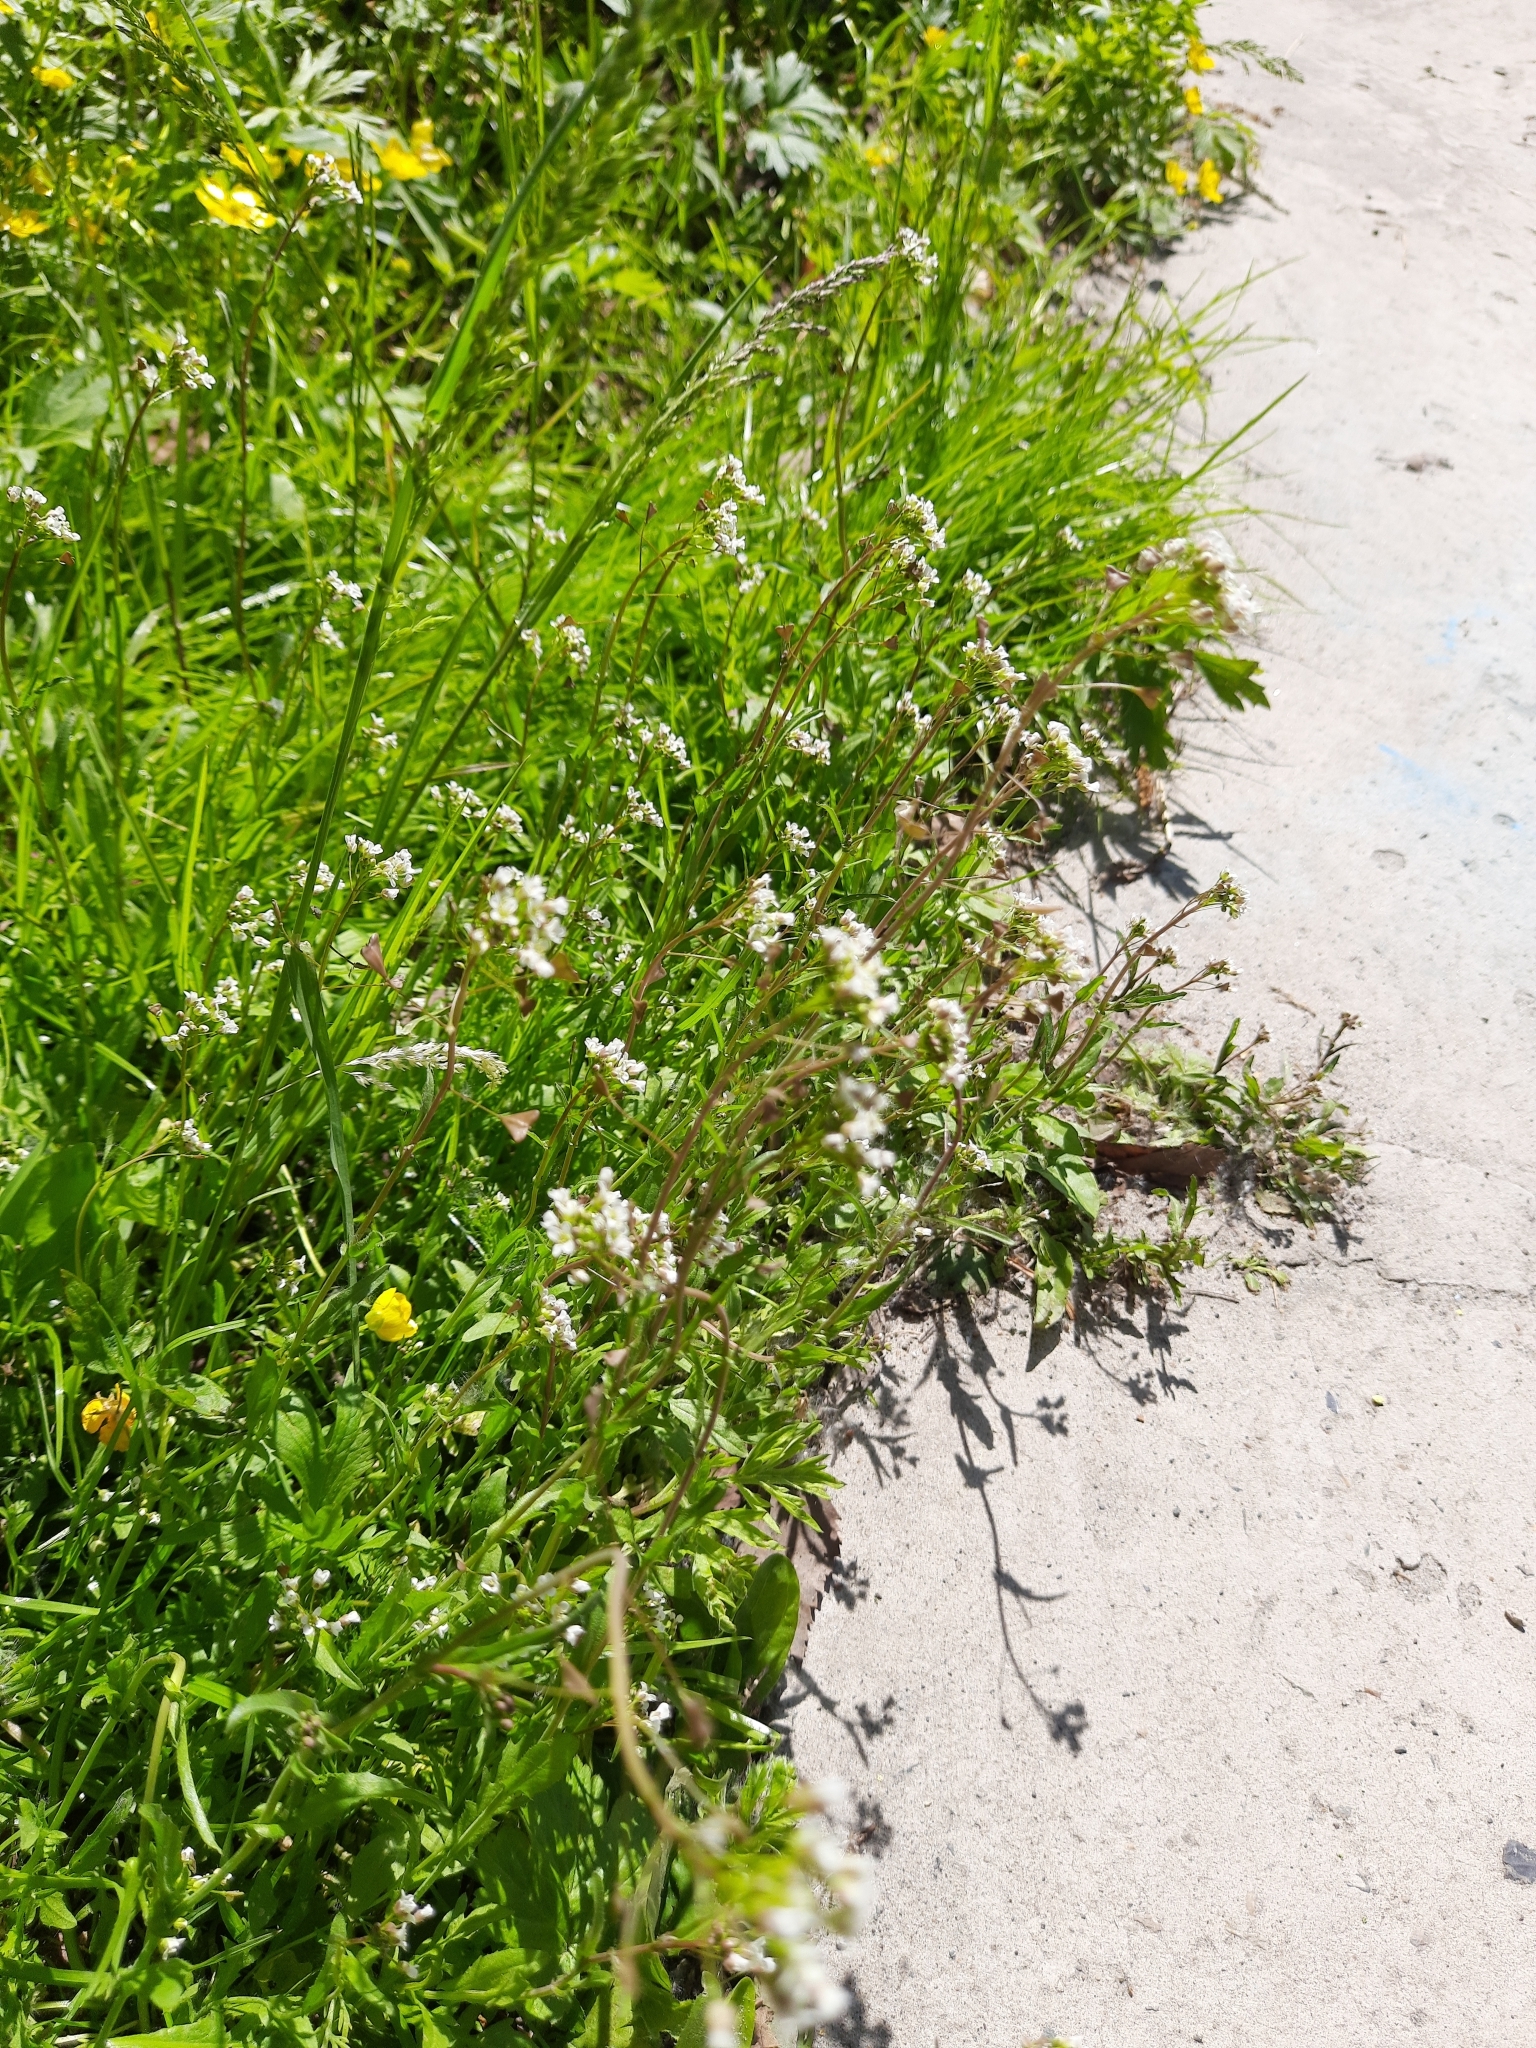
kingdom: Plantae
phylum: Tracheophyta
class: Magnoliopsida
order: Brassicales
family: Brassicaceae
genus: Capsella
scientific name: Capsella bursa-pastoris
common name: Shepherd's purse
